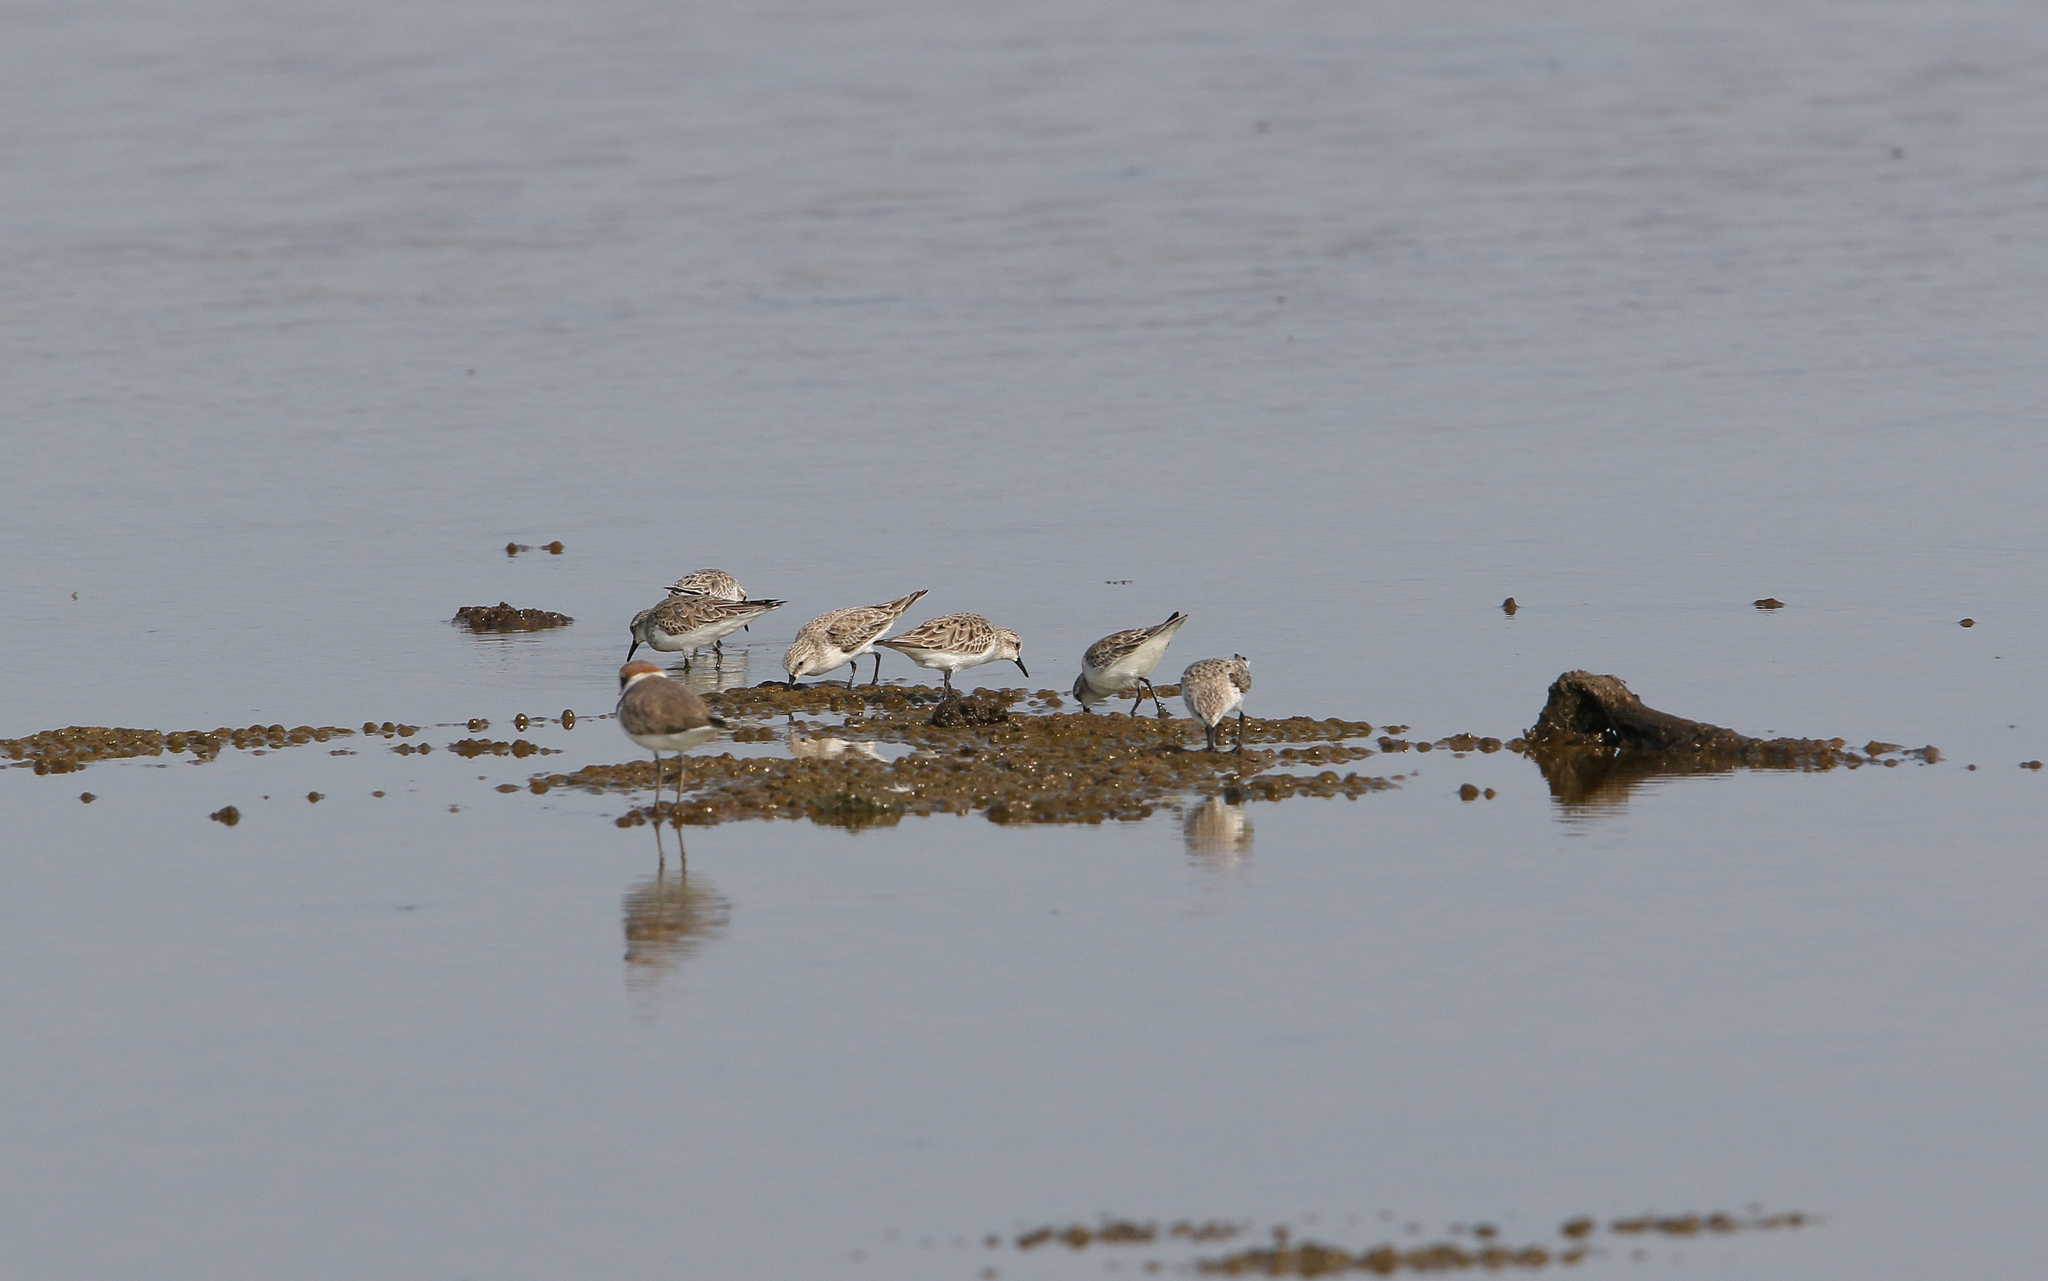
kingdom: Animalia
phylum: Chordata
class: Aves
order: Charadriiformes
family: Scolopacidae
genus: Calidris
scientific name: Calidris ruficollis
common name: Red-necked stint
